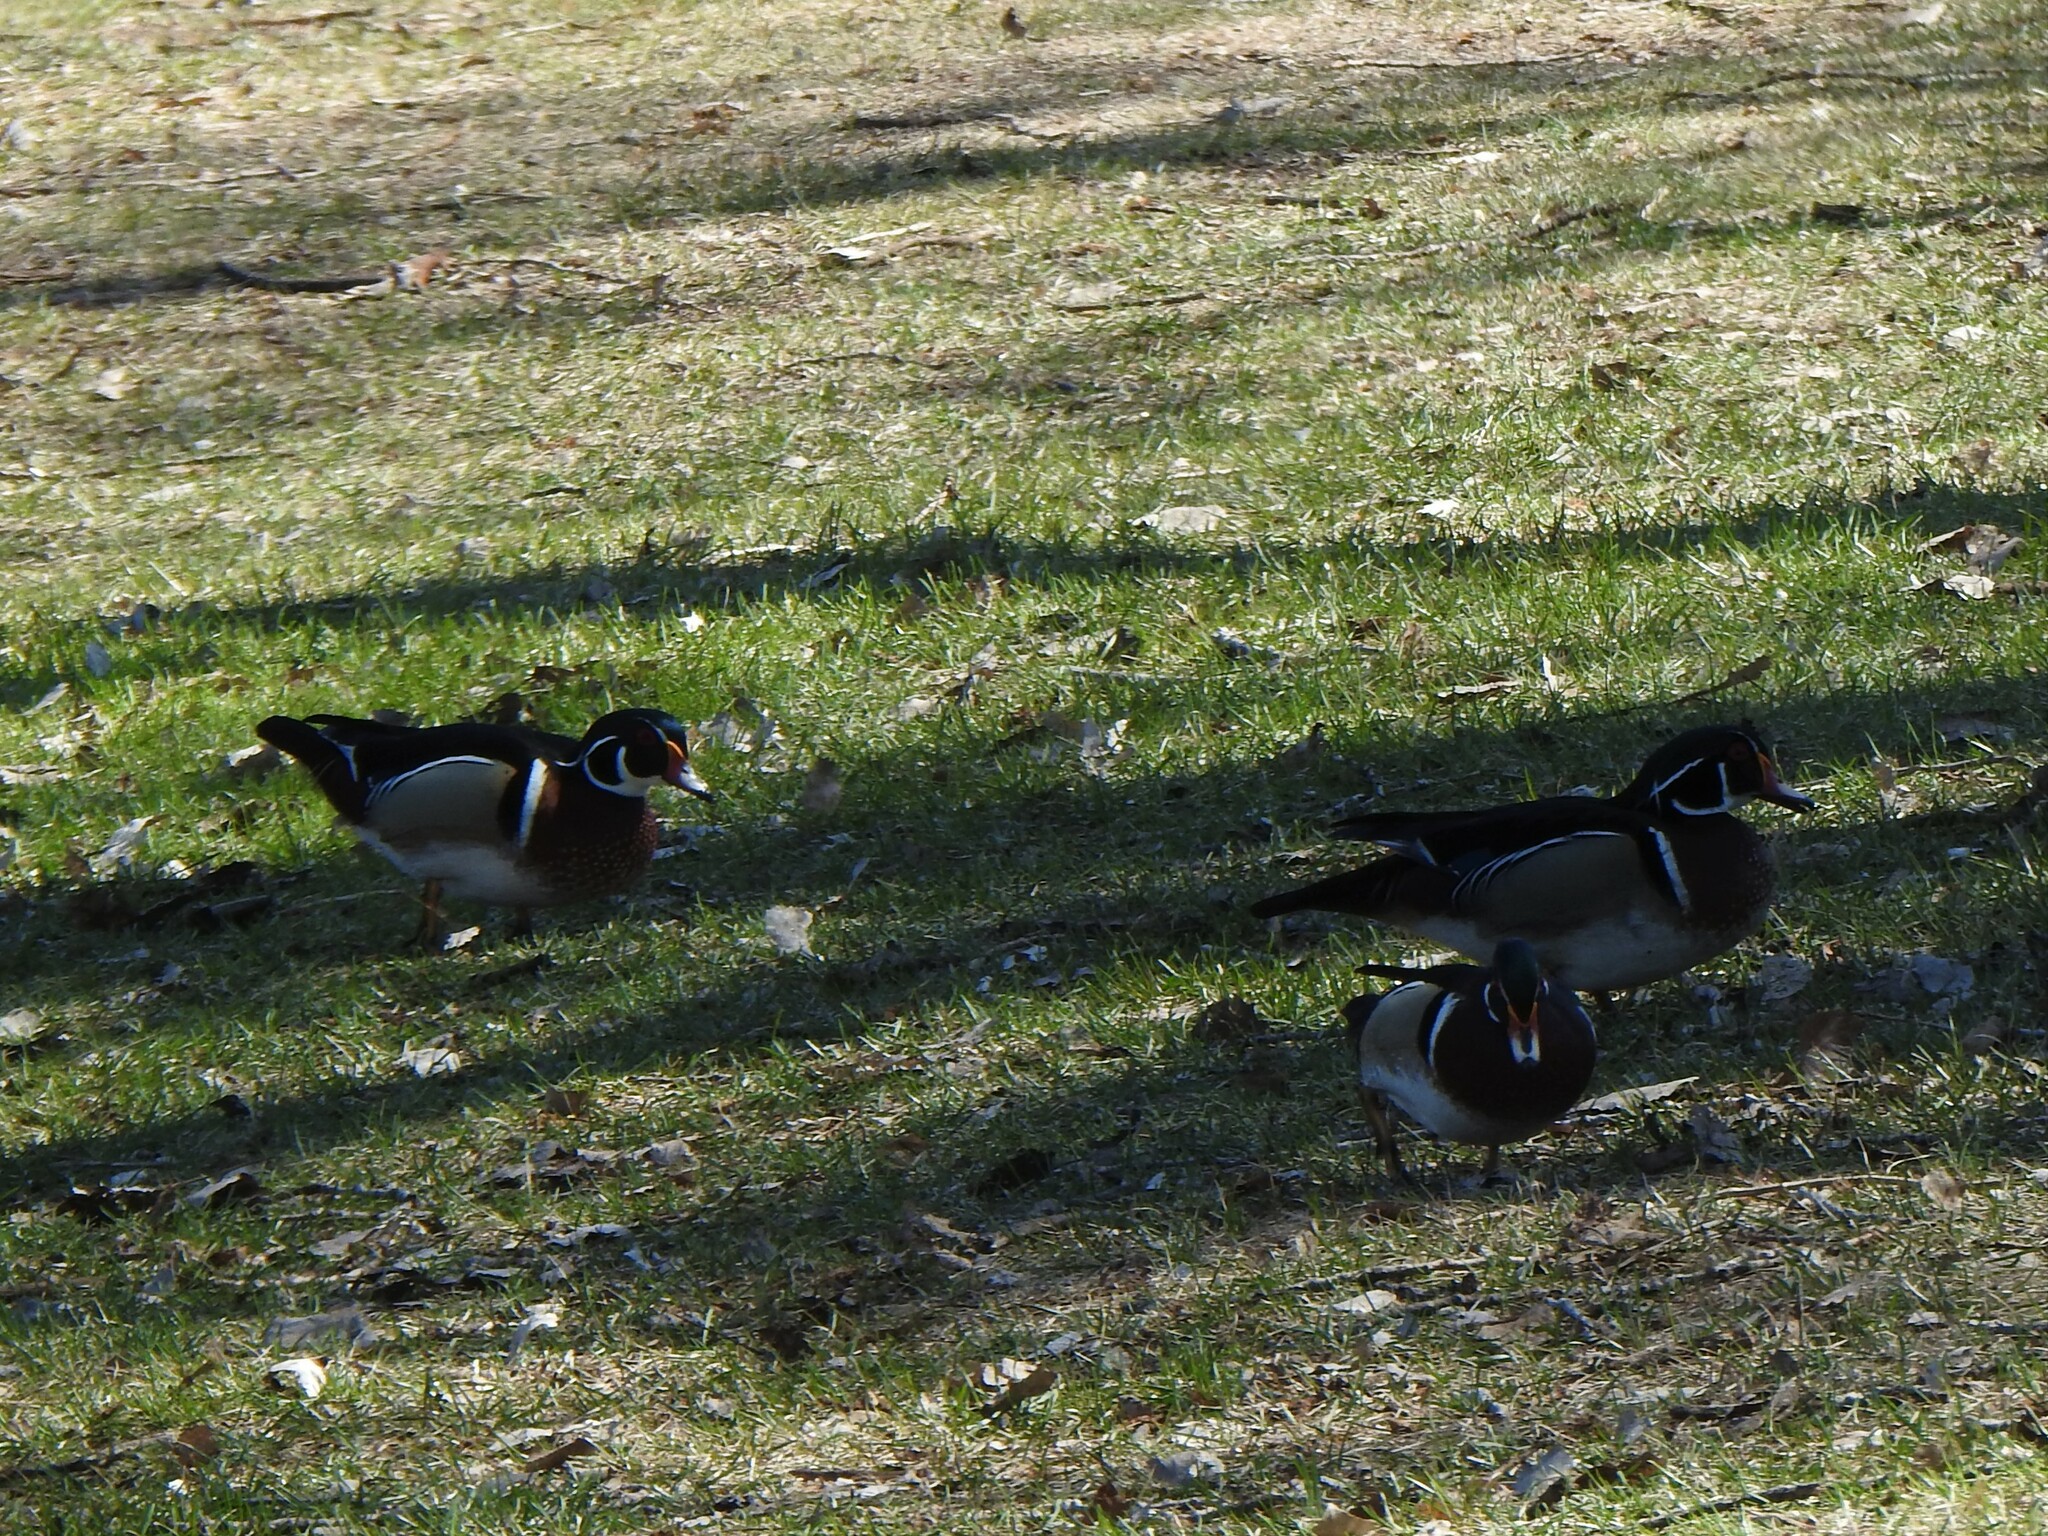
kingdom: Animalia
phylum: Chordata
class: Aves
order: Anseriformes
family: Anatidae
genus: Aix
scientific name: Aix sponsa
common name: Wood duck
